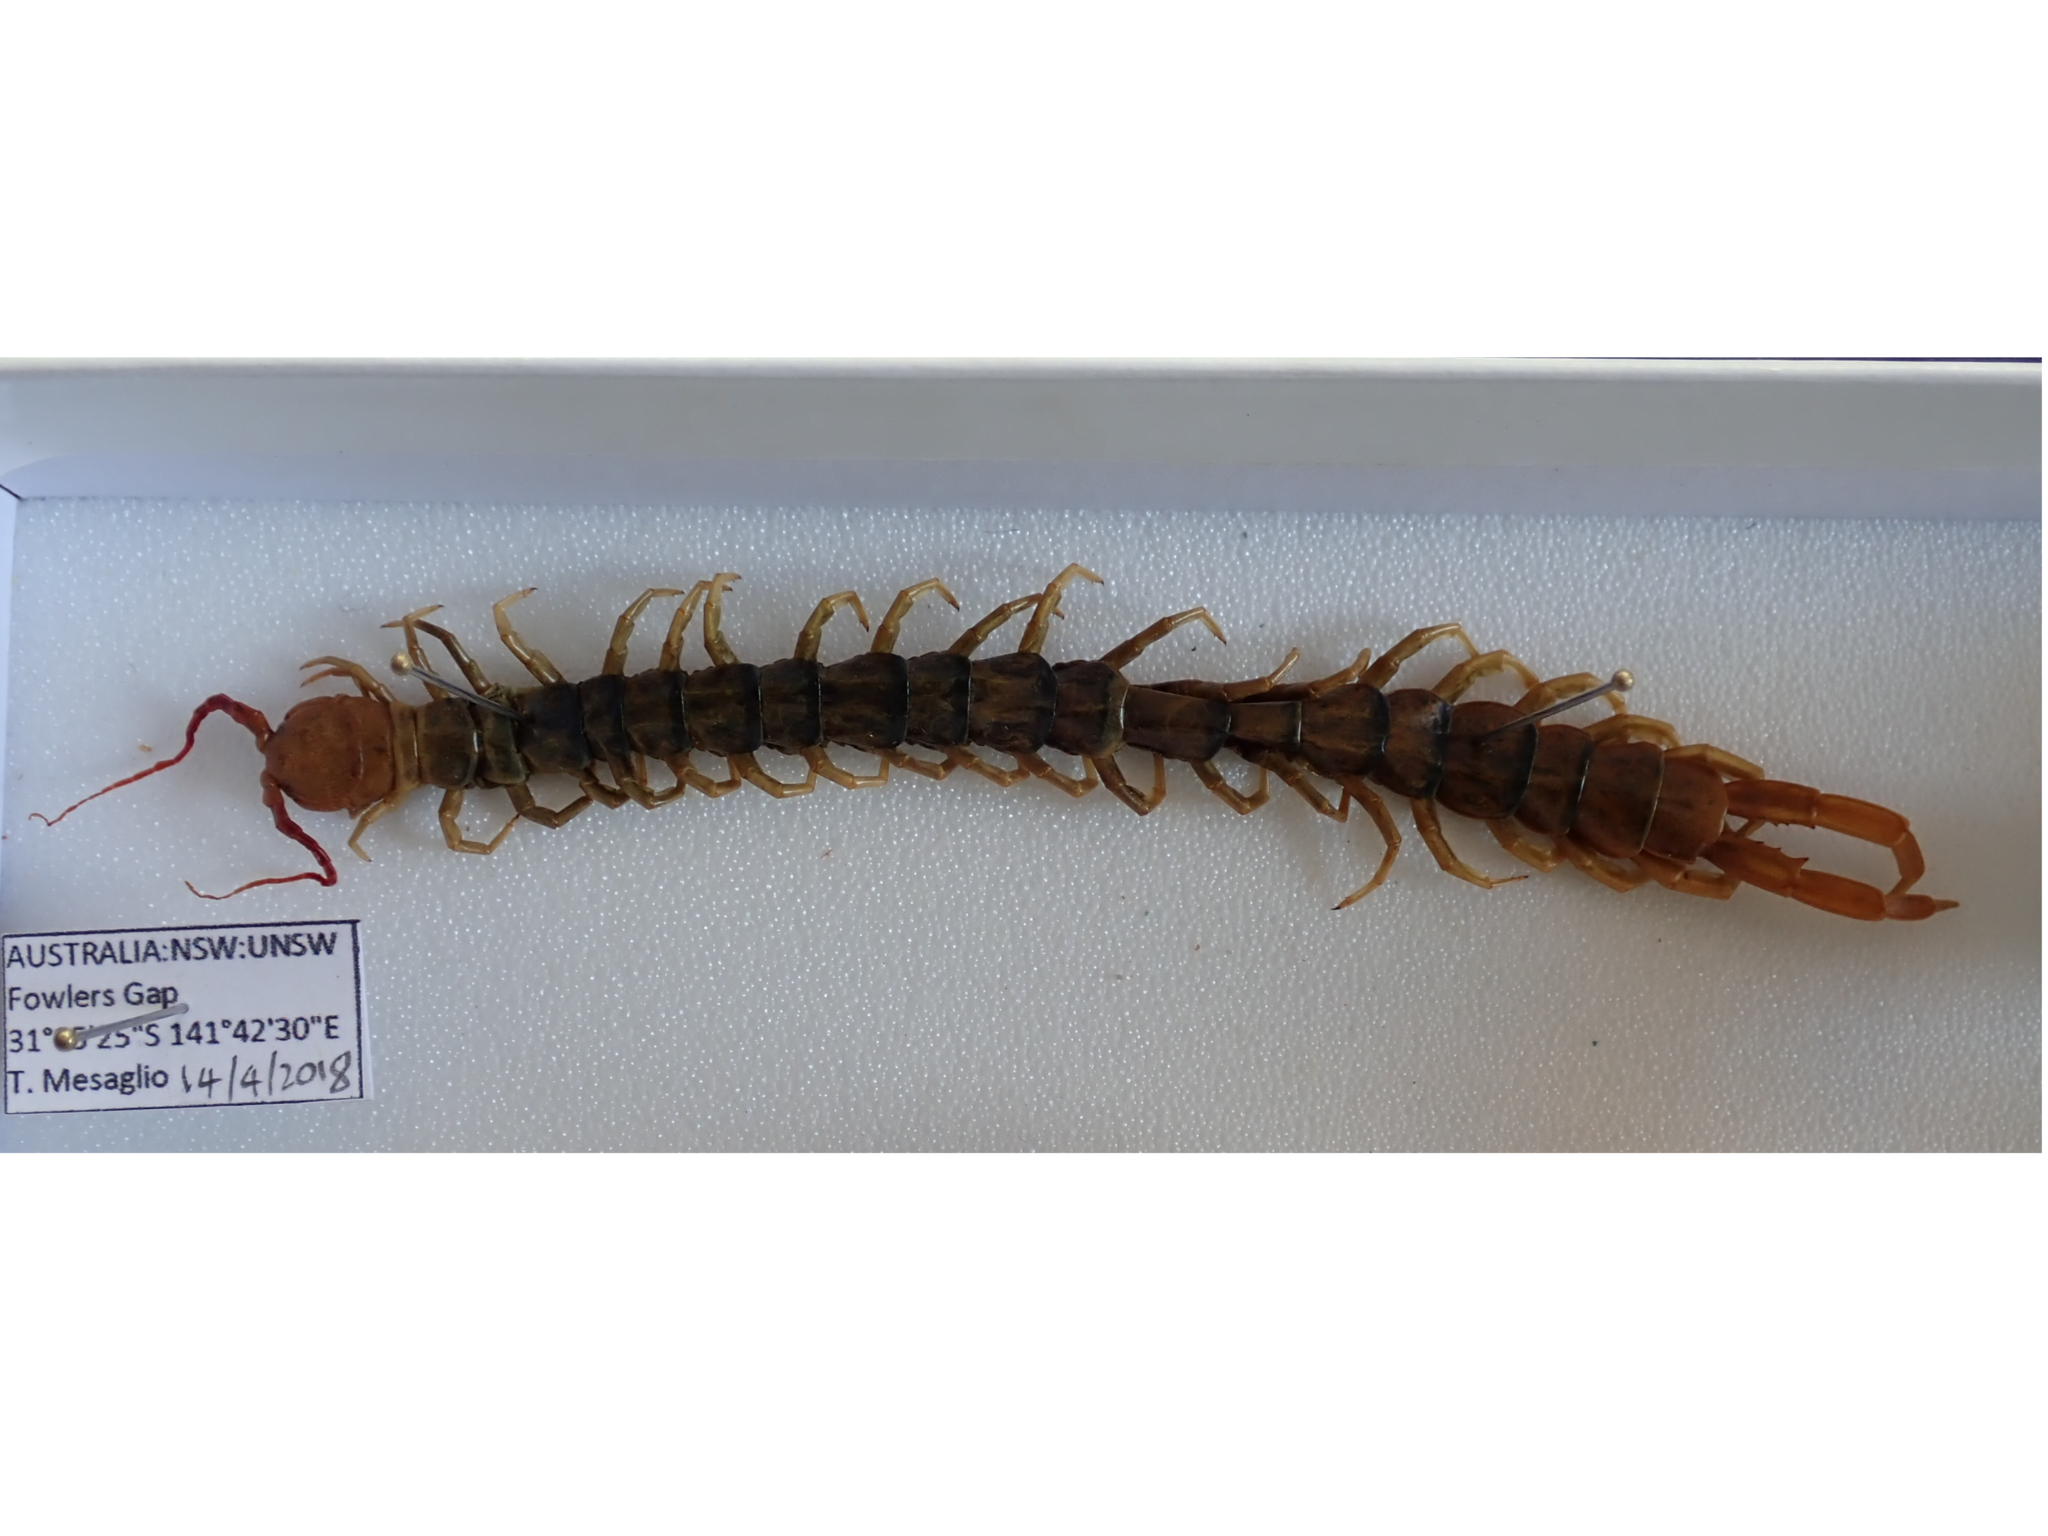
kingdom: Animalia
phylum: Arthropoda
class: Chilopoda
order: Scolopendromorpha
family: Scolopendridae
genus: Scolopendra
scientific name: Scolopendra morsitans
